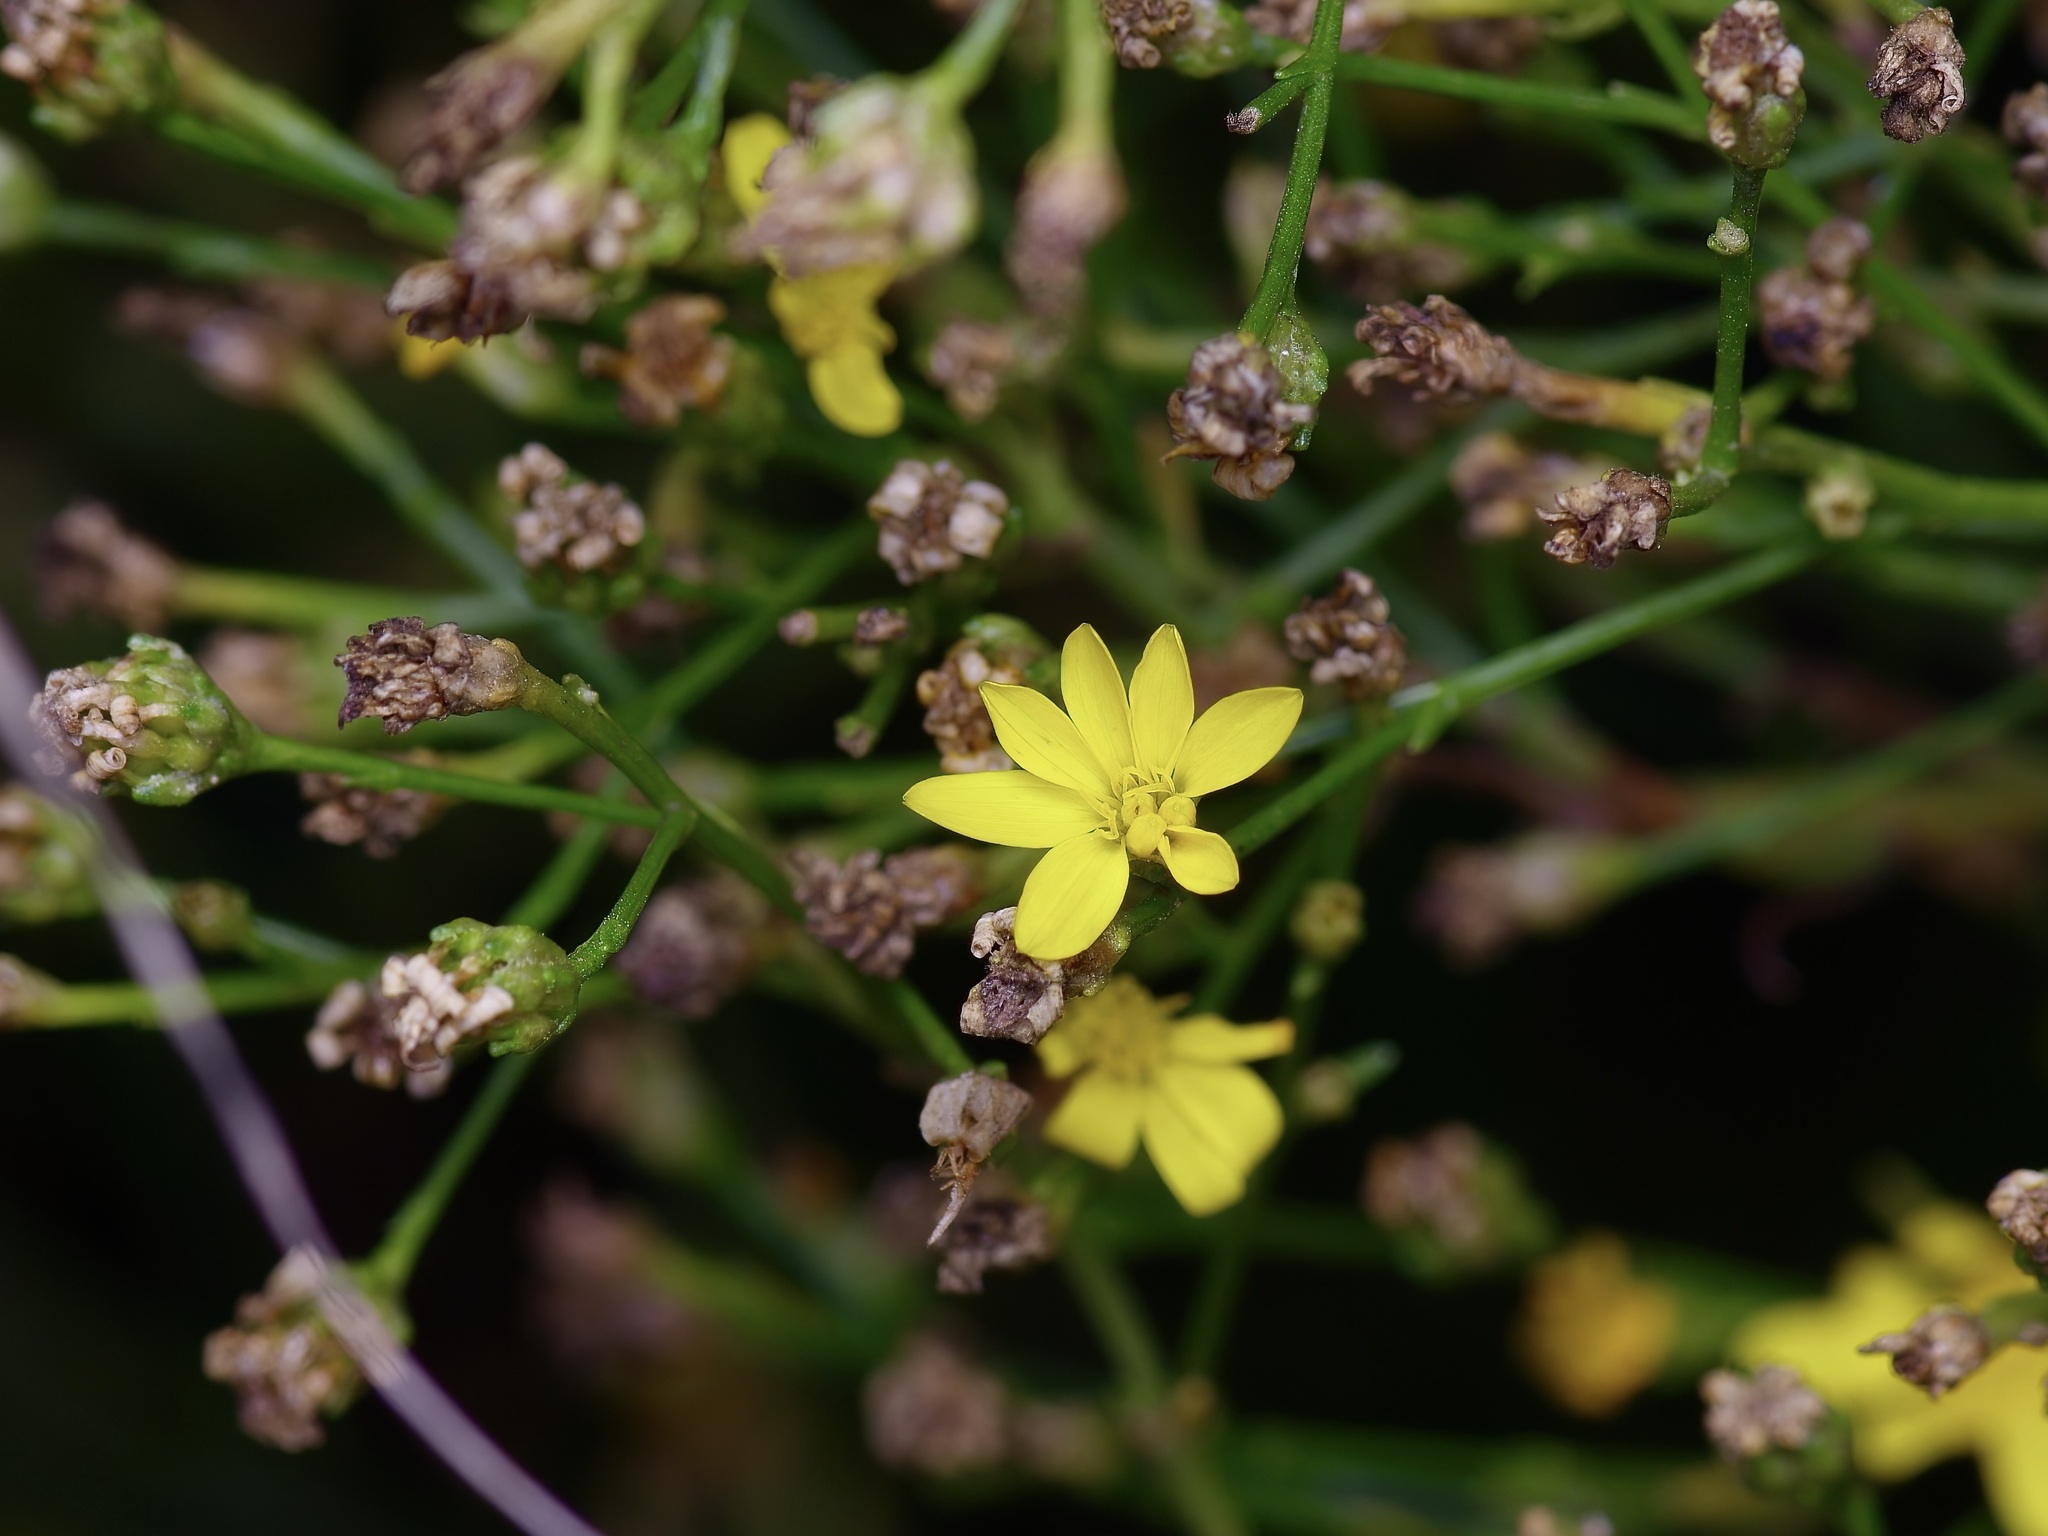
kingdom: Plantae
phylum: Tracheophyta
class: Magnoliopsida
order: Asterales
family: Asteraceae
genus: Gutierrezia
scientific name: Gutierrezia texana
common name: Texas snakeweed
